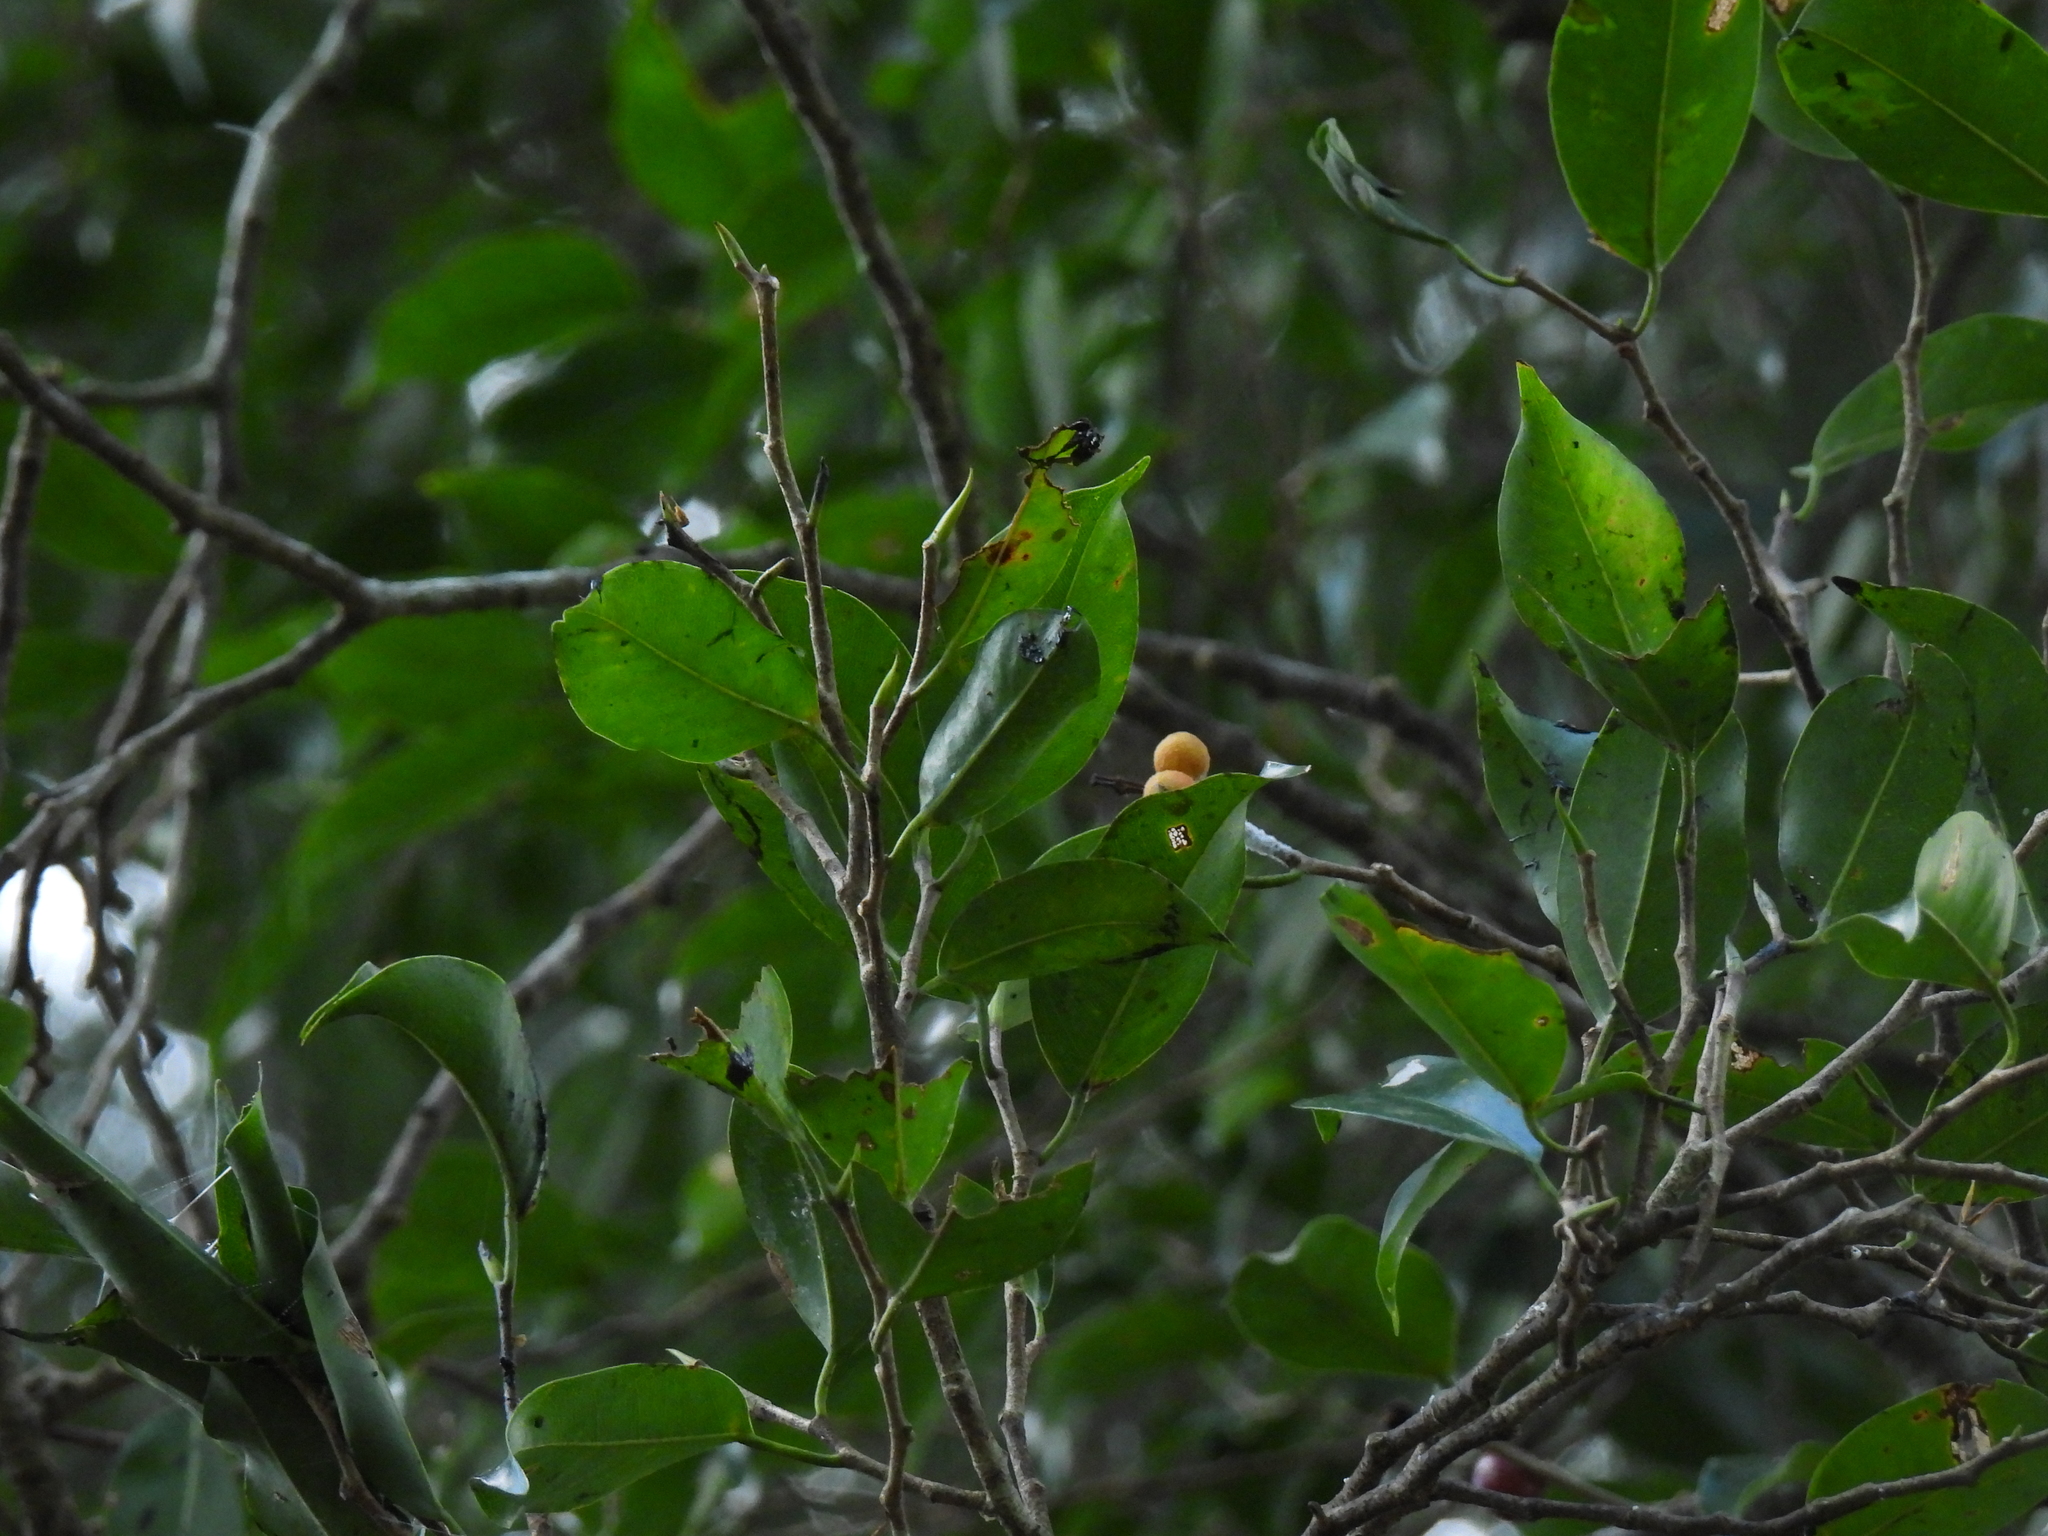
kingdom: Plantae
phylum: Tracheophyta
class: Magnoliopsida
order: Rosales
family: Moraceae
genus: Ficus
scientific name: Ficus benjamina
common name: Weeping fig
